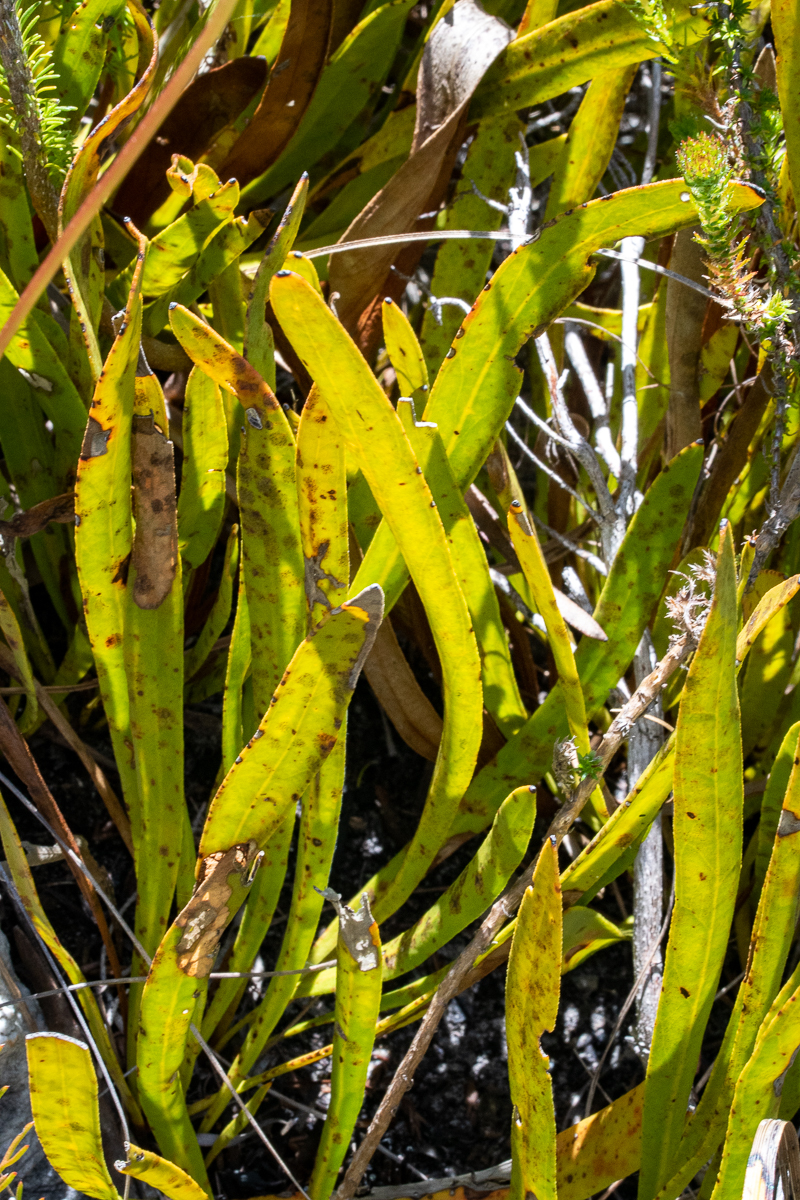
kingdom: Plantae
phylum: Tracheophyta
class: Magnoliopsida
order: Proteales
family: Proteaceae
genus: Protea
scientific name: Protea scabra
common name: Sandpaper-leaf sugarbush
